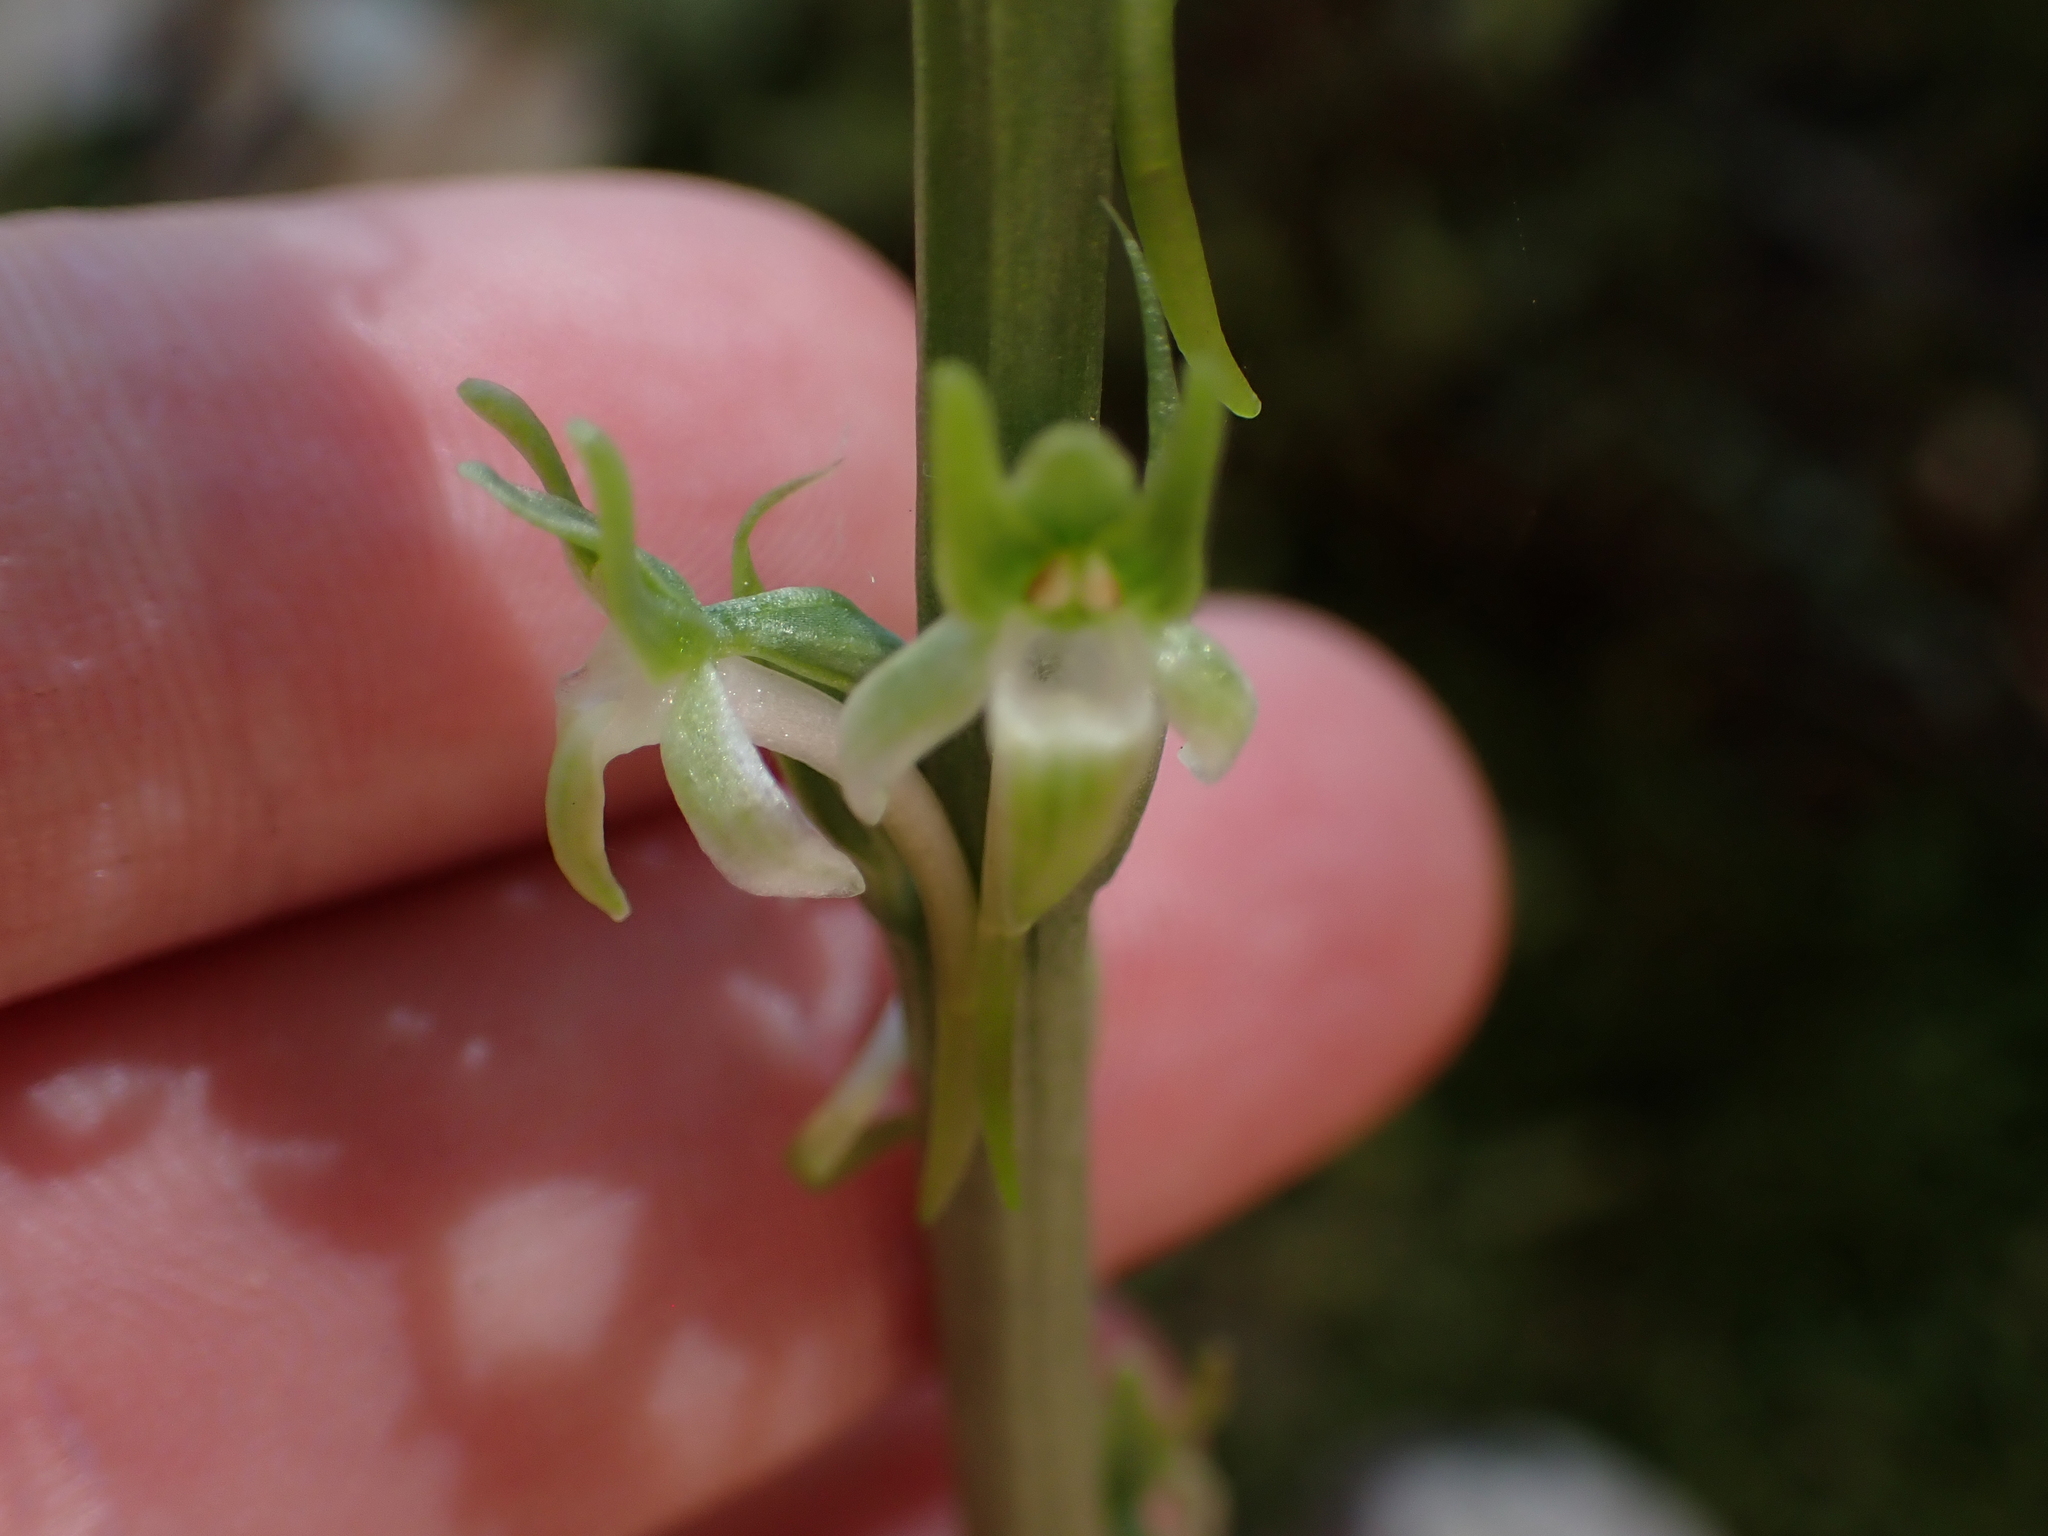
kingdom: Plantae
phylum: Tracheophyta
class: Liliopsida
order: Asparagales
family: Orchidaceae
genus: Platanthera
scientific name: Platanthera elongata
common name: Dense-flowered rein orchid
